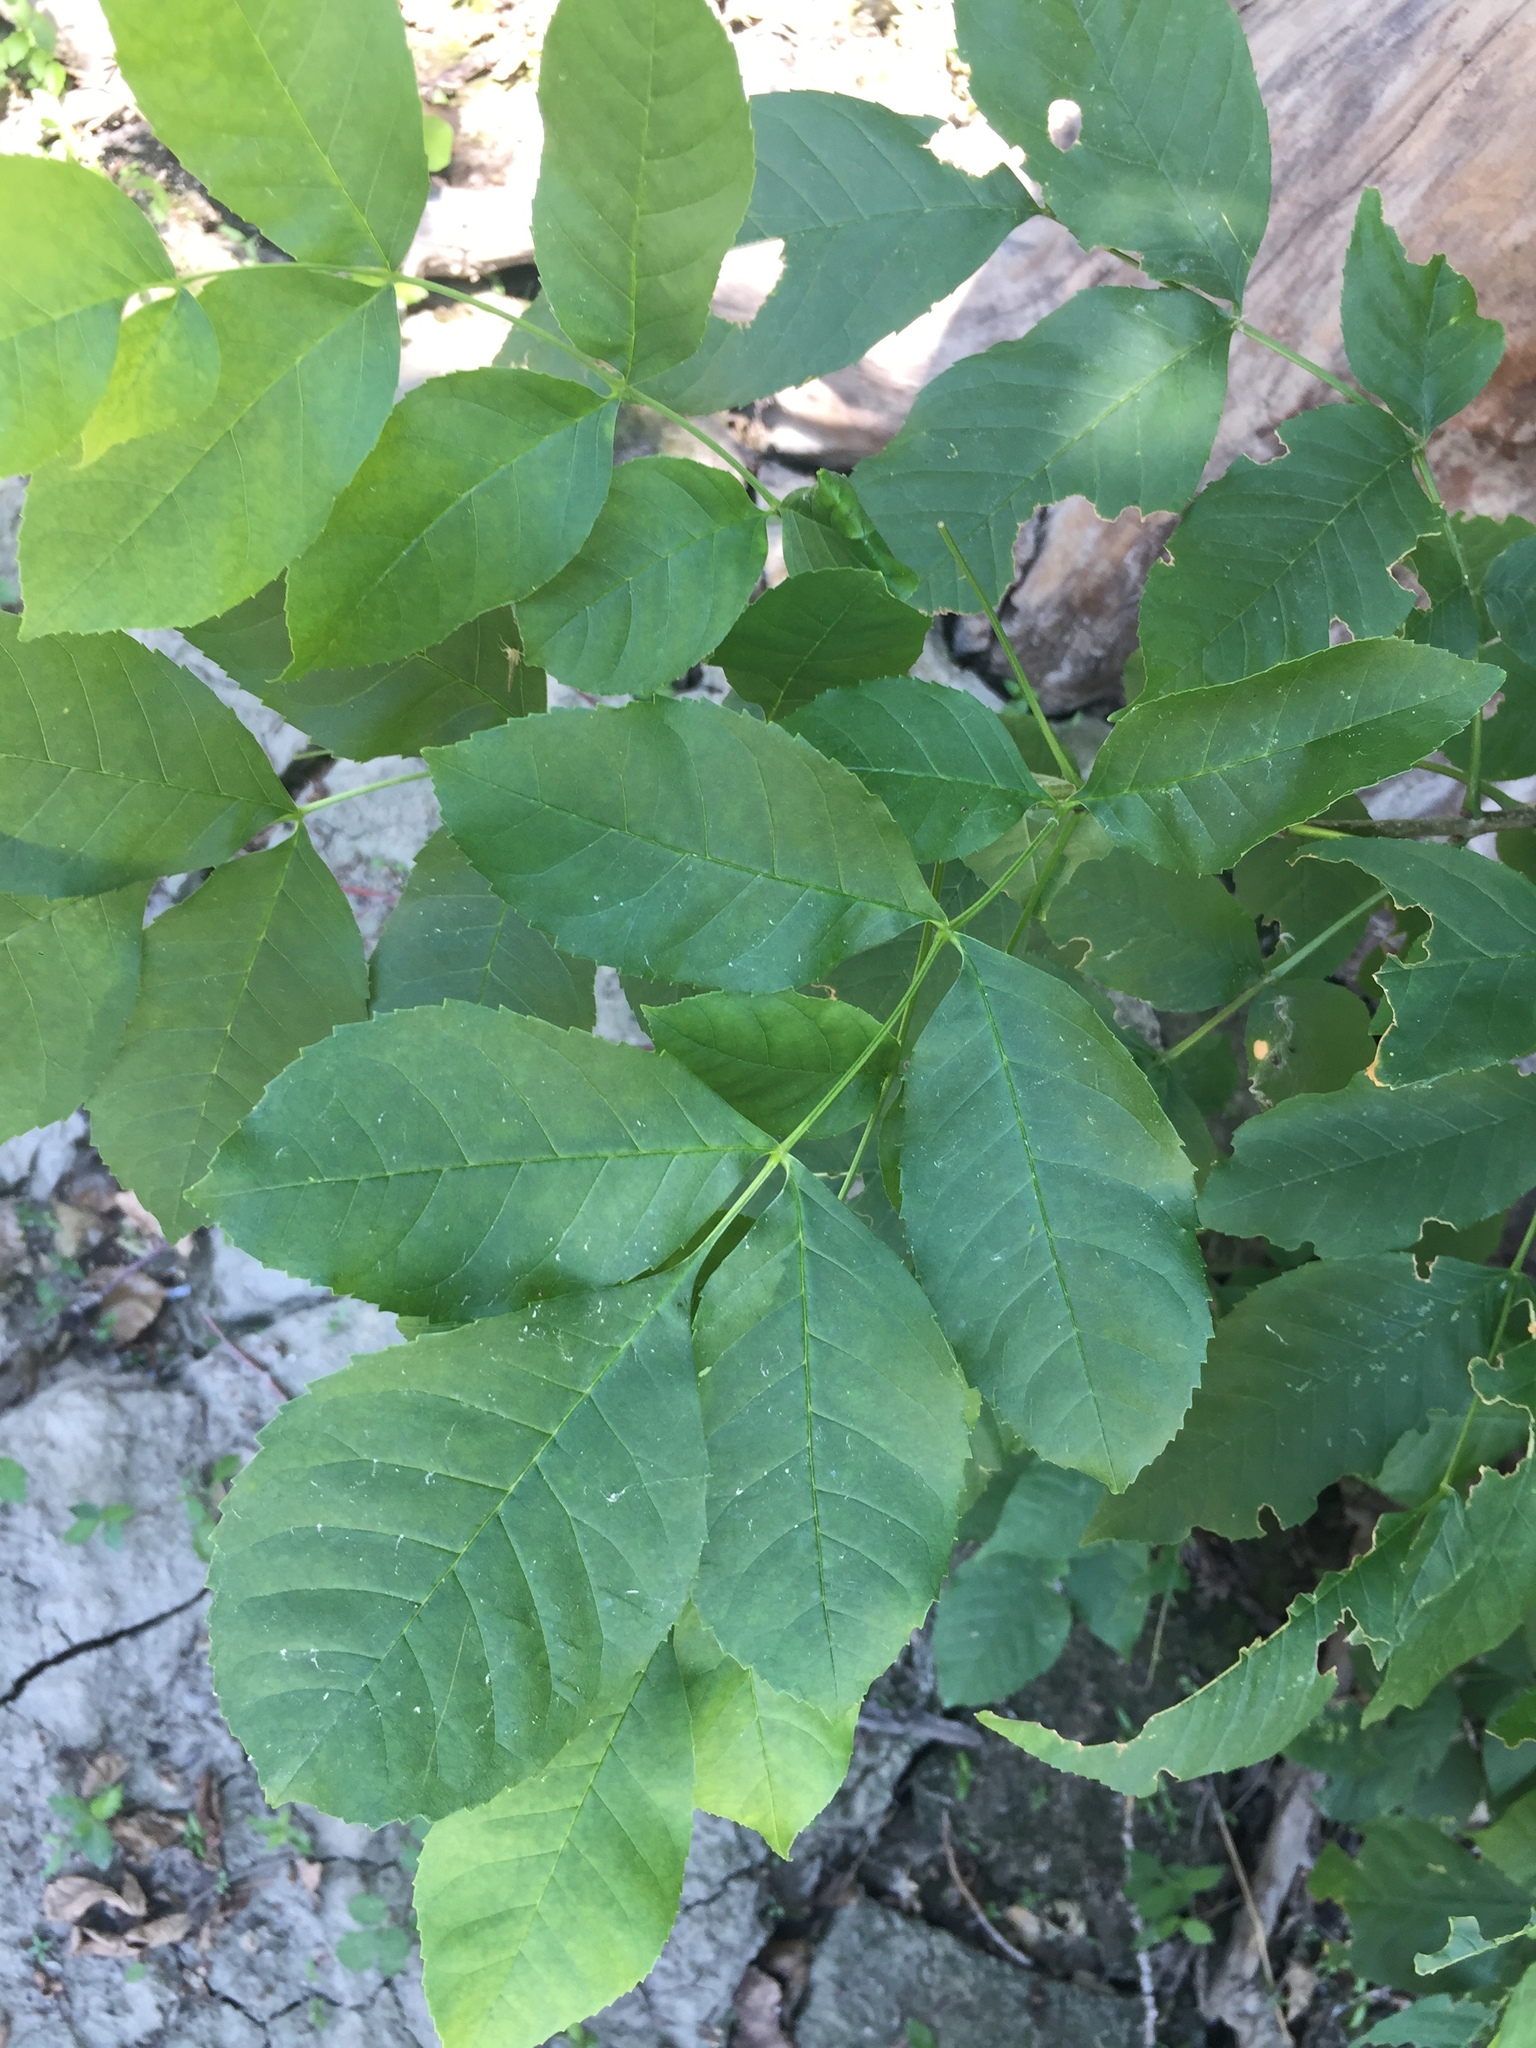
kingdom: Plantae
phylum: Tracheophyta
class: Magnoliopsida
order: Lamiales
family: Oleaceae
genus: Fraxinus
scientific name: Fraxinus pennsylvanica
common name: Green ash
